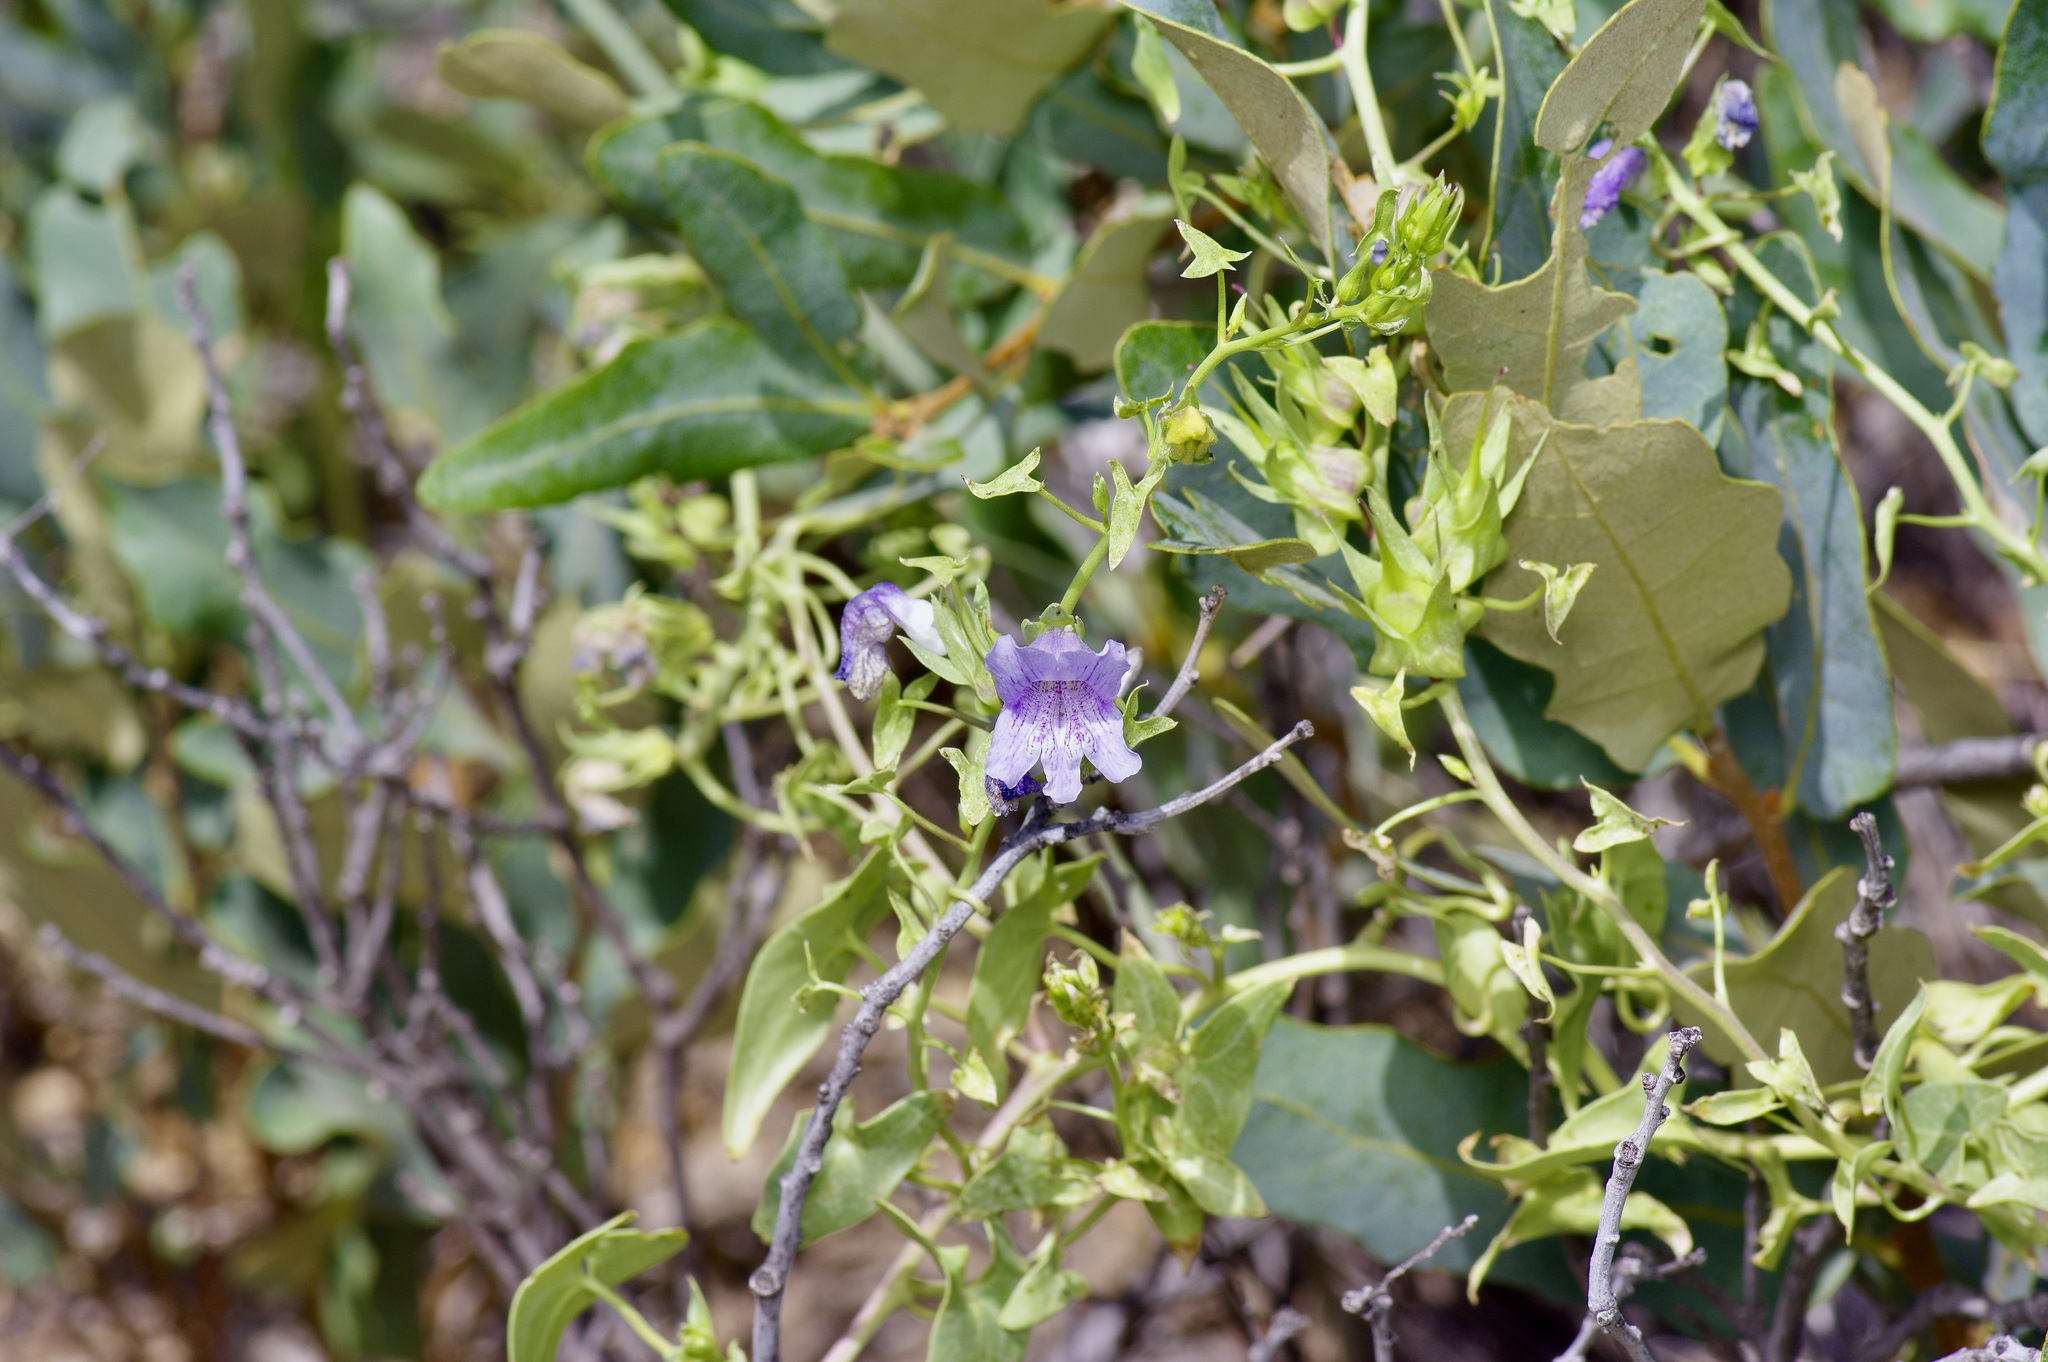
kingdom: Plantae
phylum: Tracheophyta
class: Magnoliopsida
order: Lamiales
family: Plantaginaceae
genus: Epixiphium
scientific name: Epixiphium wislizeni
